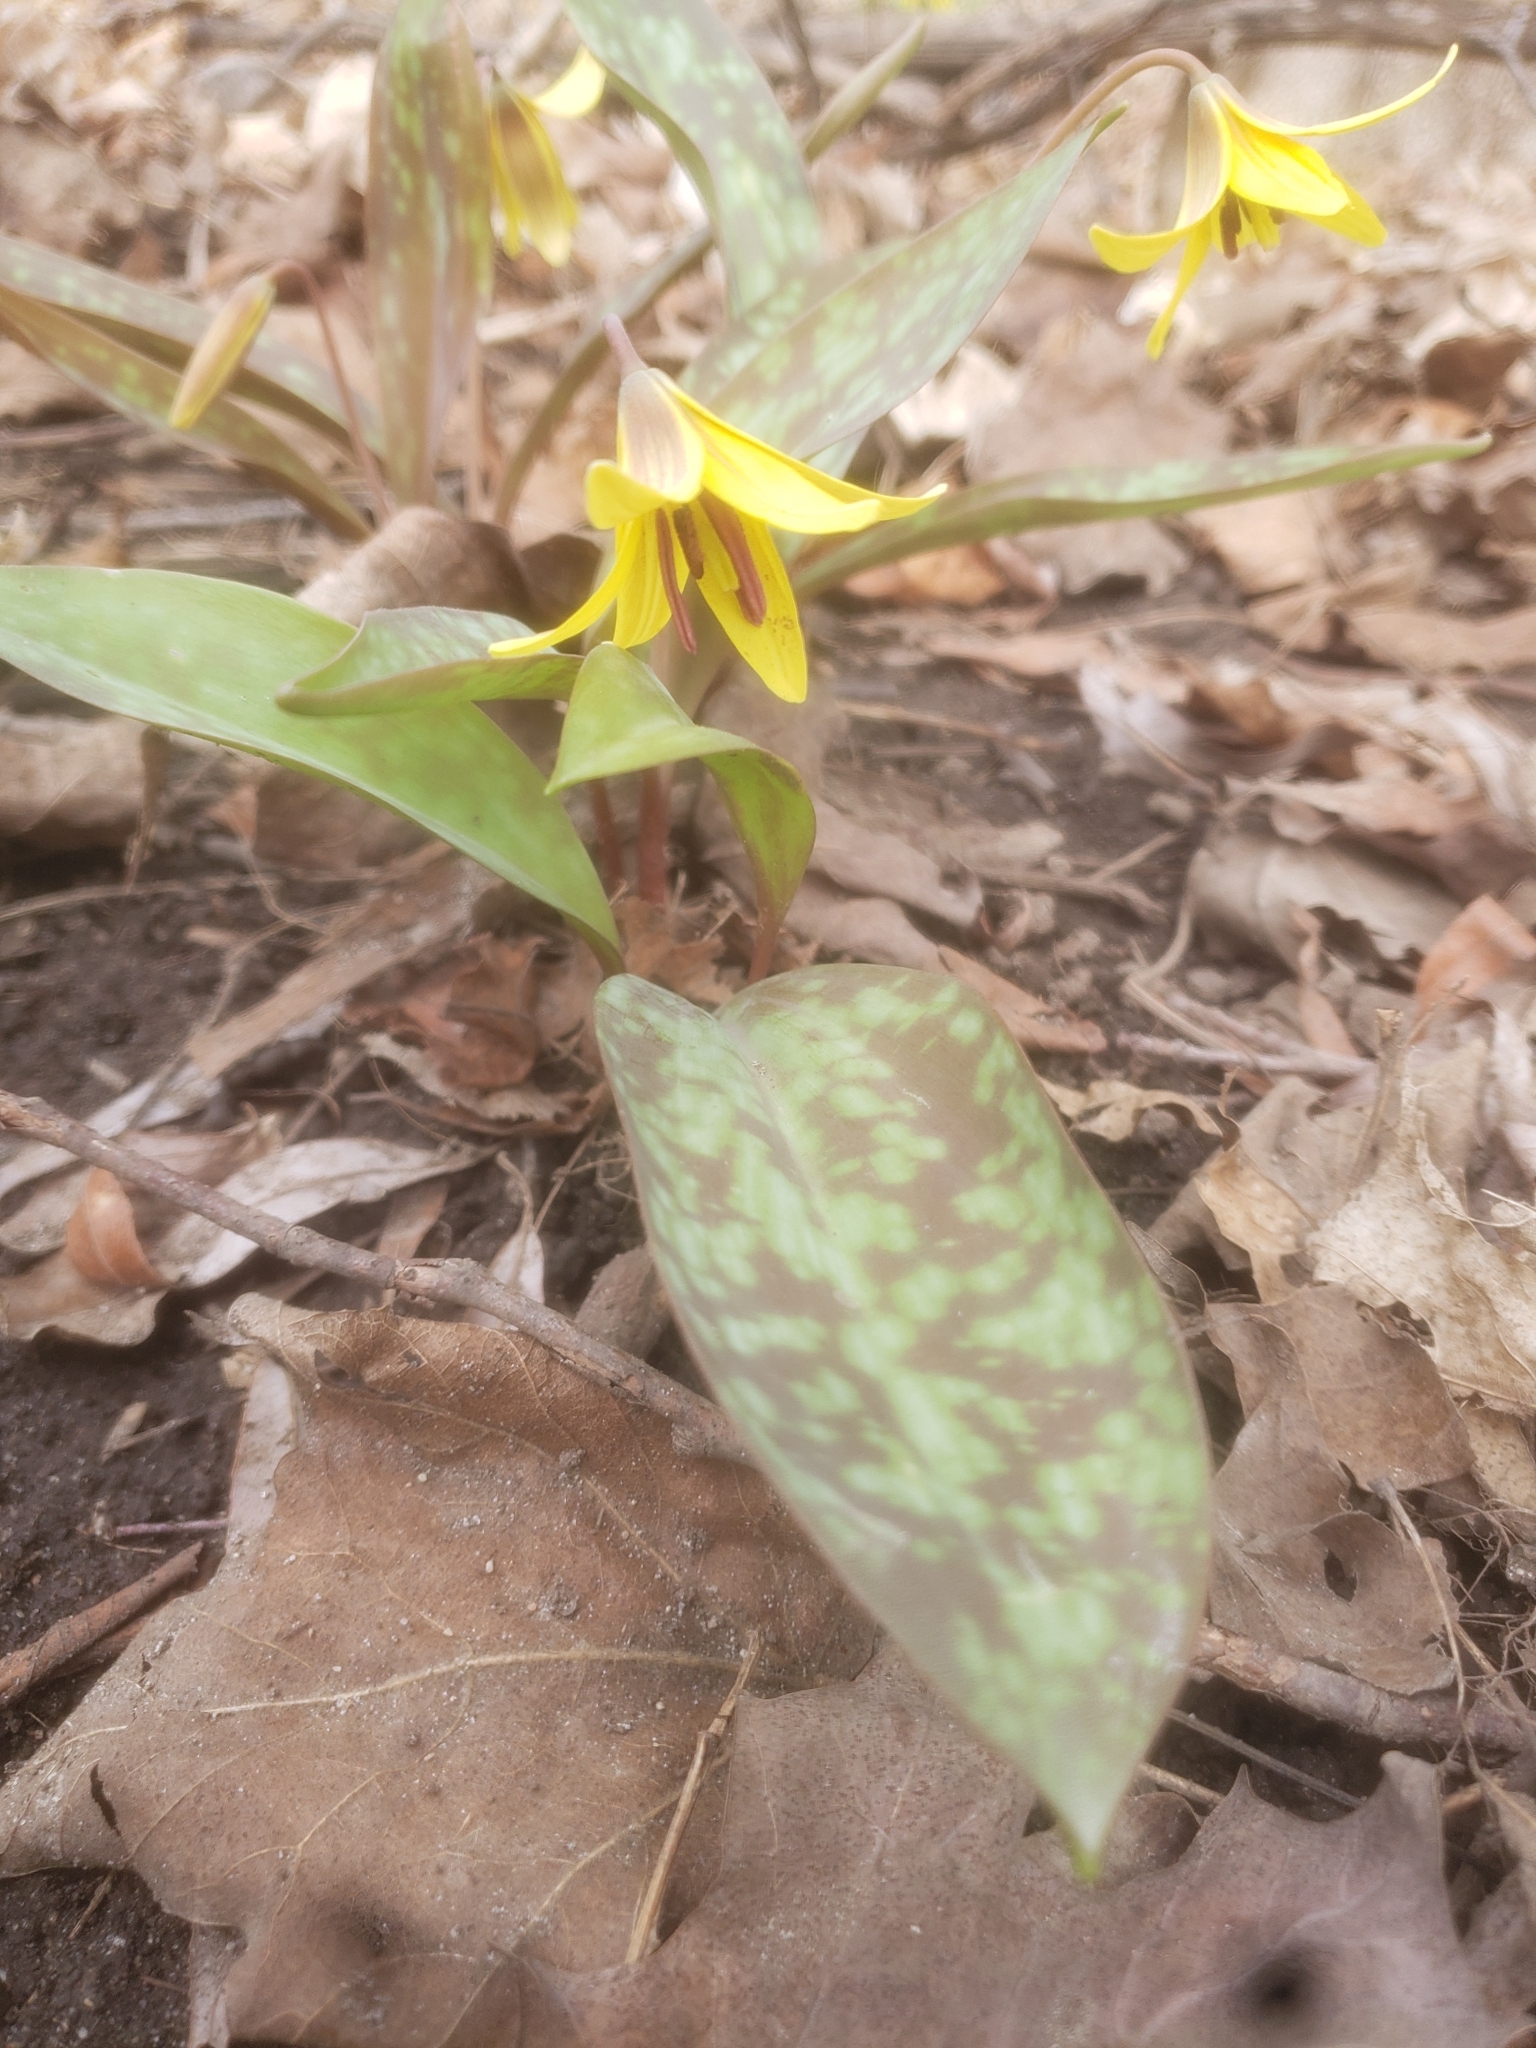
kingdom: Plantae
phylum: Tracheophyta
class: Liliopsida
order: Liliales
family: Liliaceae
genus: Erythronium
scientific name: Erythronium americanum
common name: Yellow adder's-tongue
